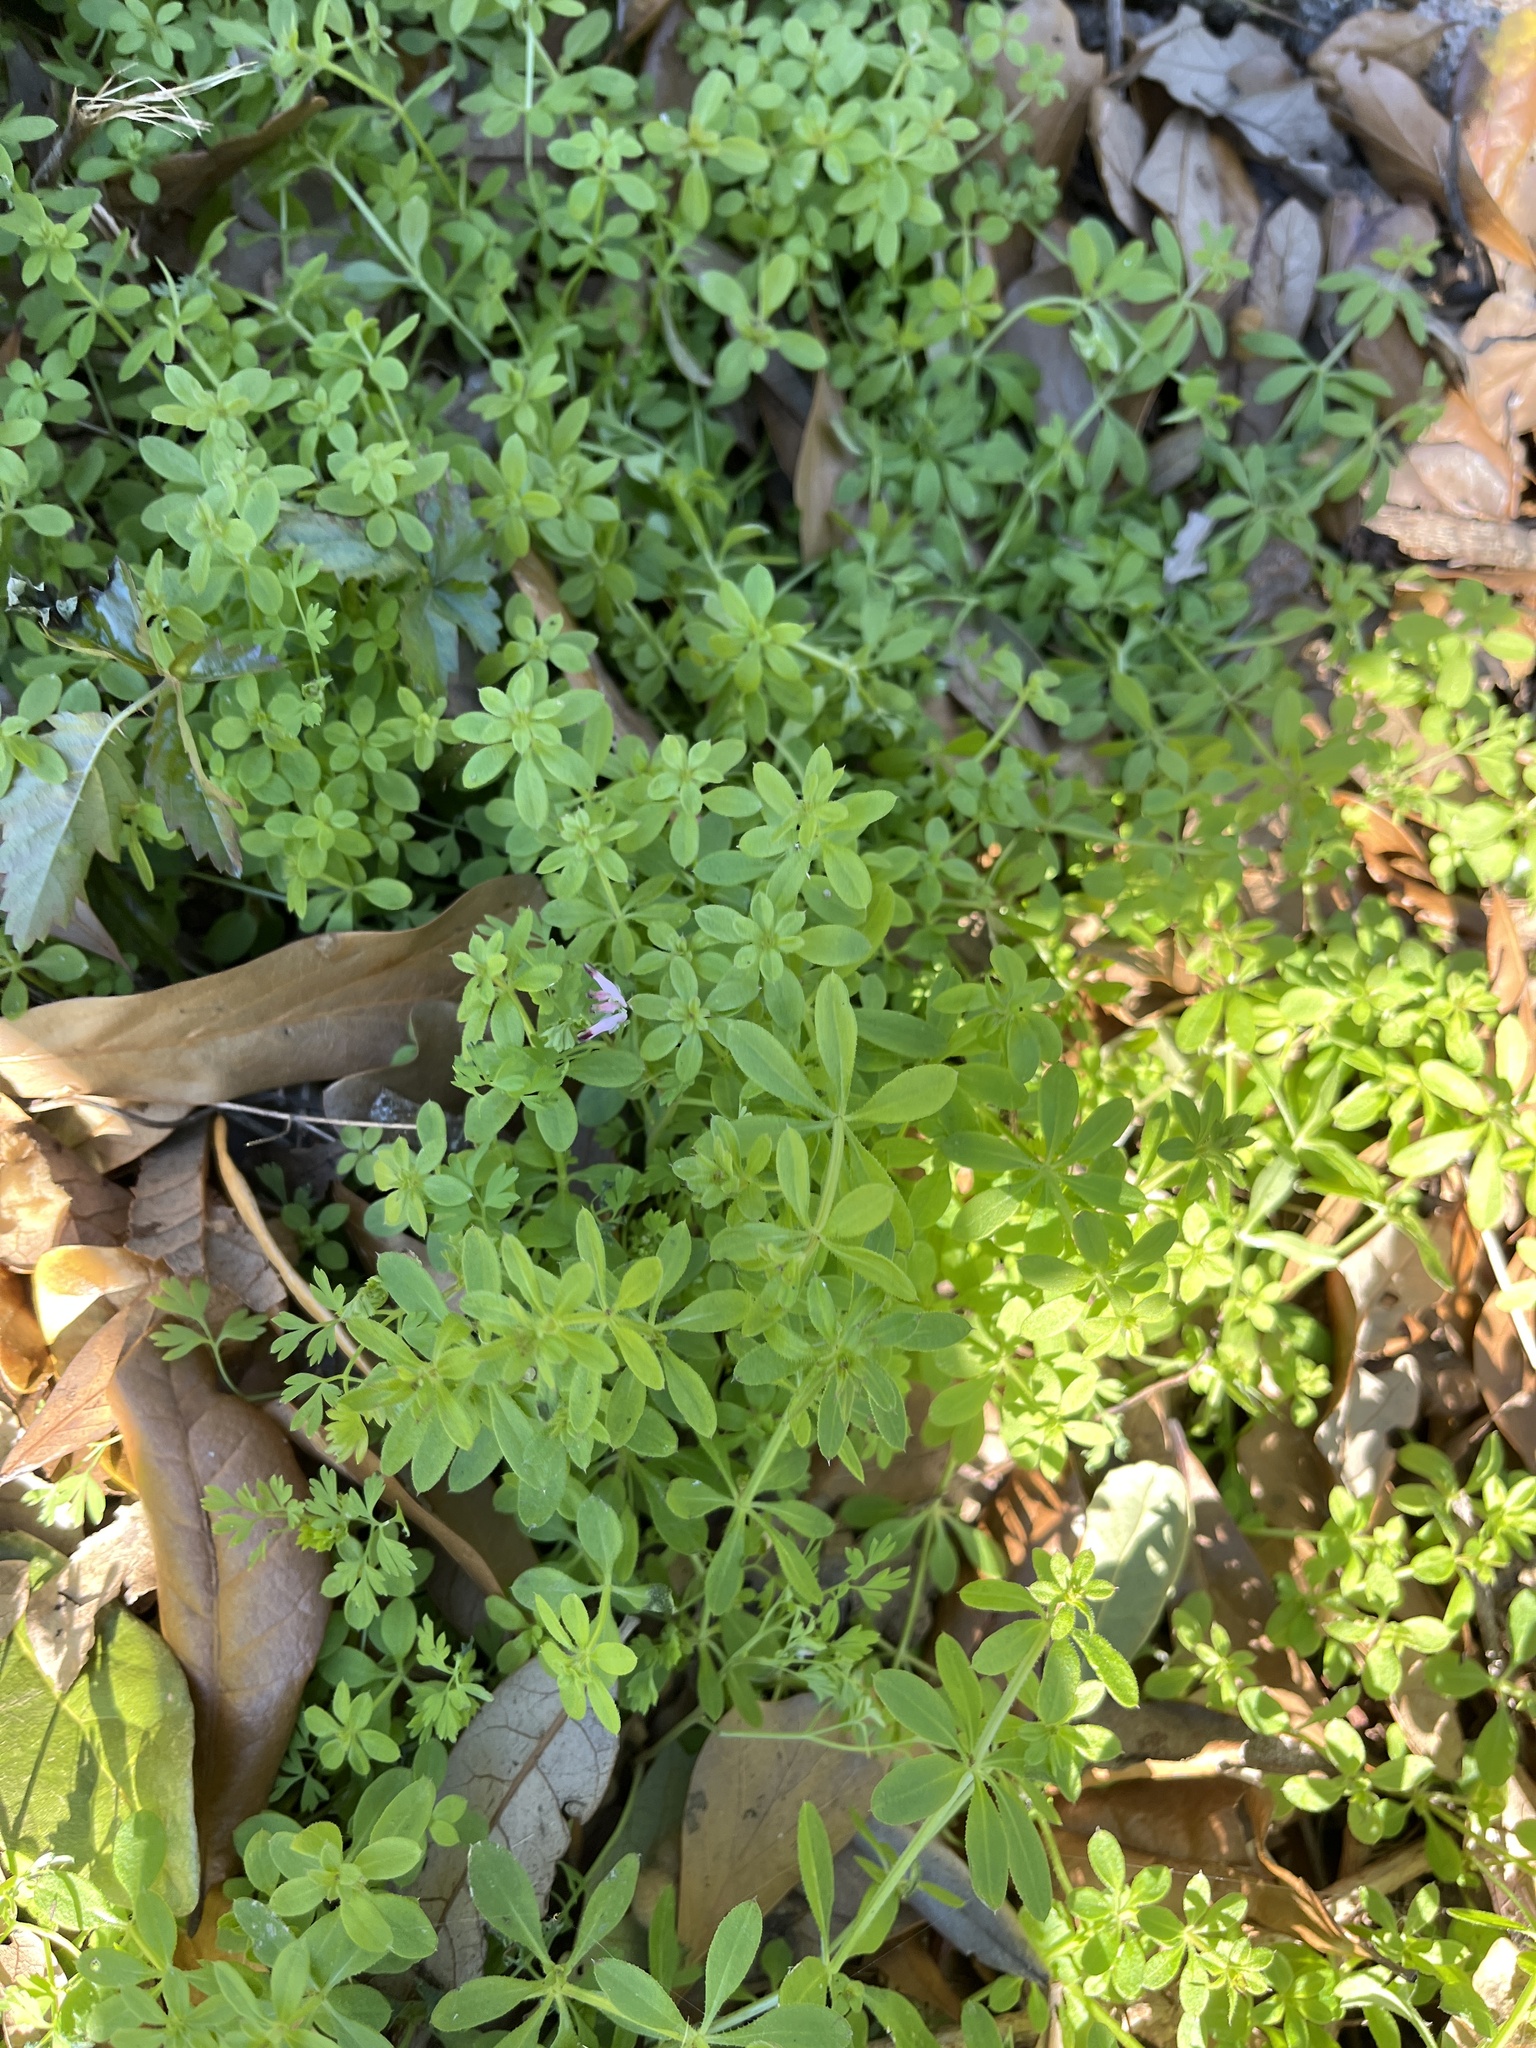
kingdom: Plantae
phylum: Tracheophyta
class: Magnoliopsida
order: Gentianales
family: Rubiaceae
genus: Galium
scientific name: Galium aparine
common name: Cleavers
